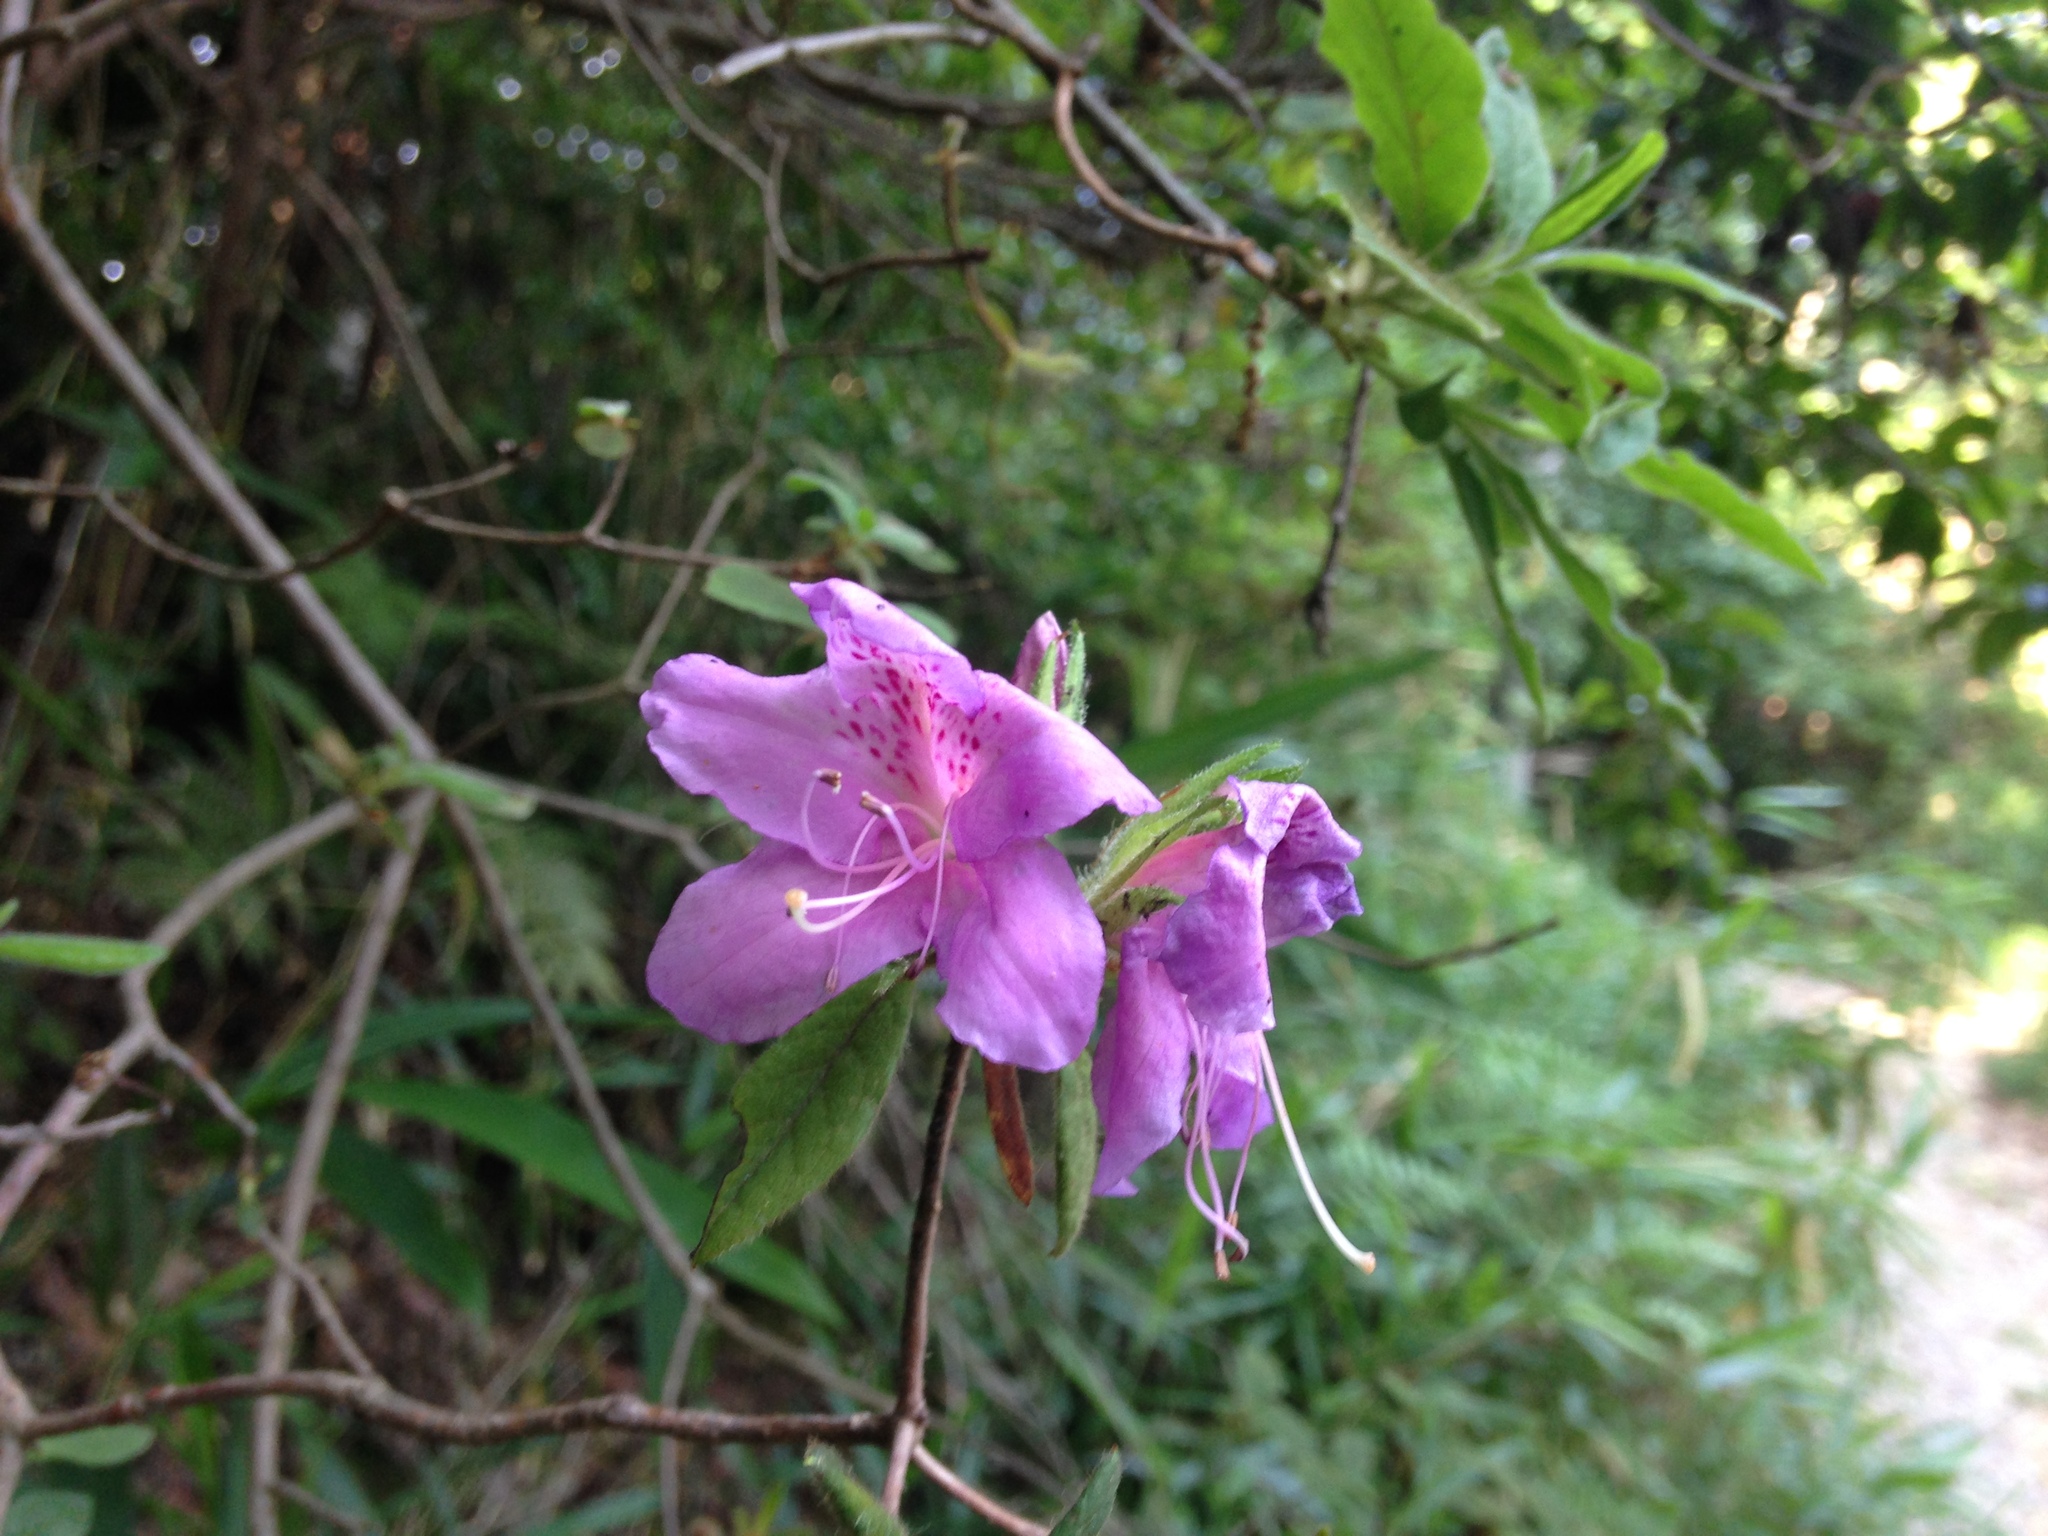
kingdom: Plantae
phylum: Tracheophyta
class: Magnoliopsida
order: Ericales
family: Ericaceae
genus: Rhododendron
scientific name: Rhododendron stenopetalum
